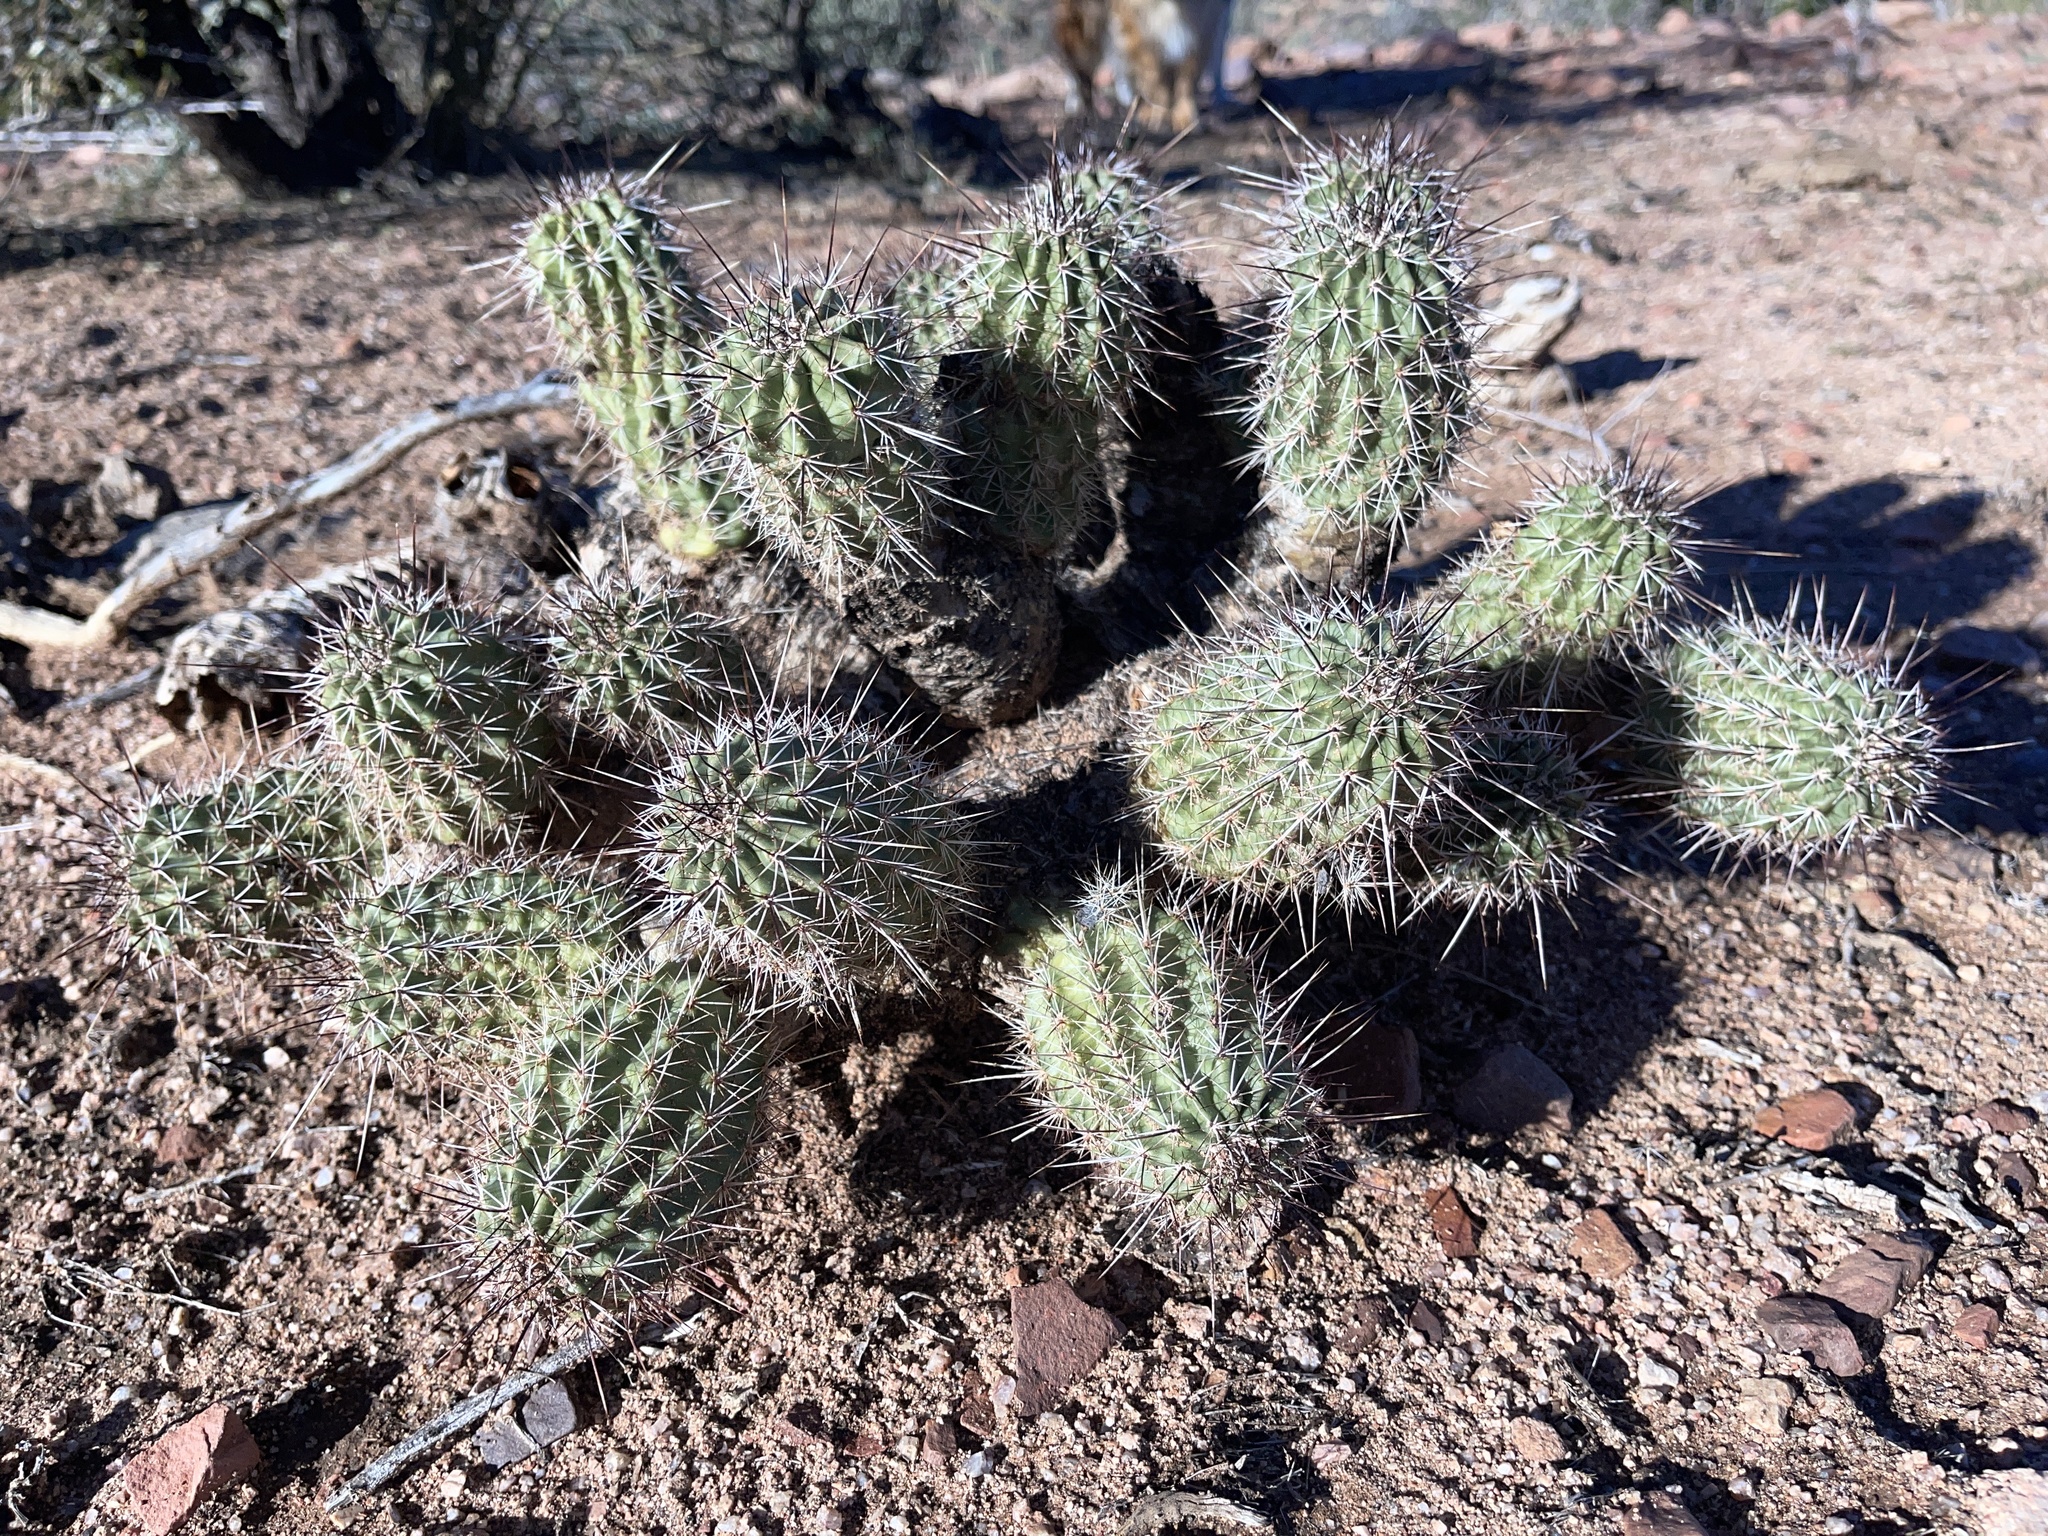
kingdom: Plantae
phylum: Tracheophyta
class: Magnoliopsida
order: Caryophyllales
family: Cactaceae
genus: Echinocereus
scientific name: Echinocereus fasciculatus
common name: Bundle hedgehog
